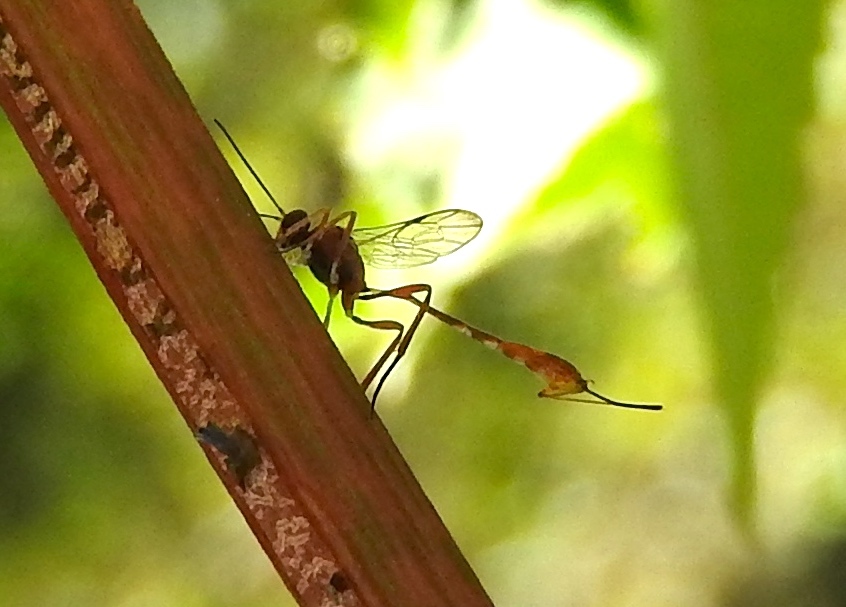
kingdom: Animalia
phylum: Arthropoda
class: Insecta
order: Hymenoptera
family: Ichneumonidae
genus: Anomalon
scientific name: Anomalon
